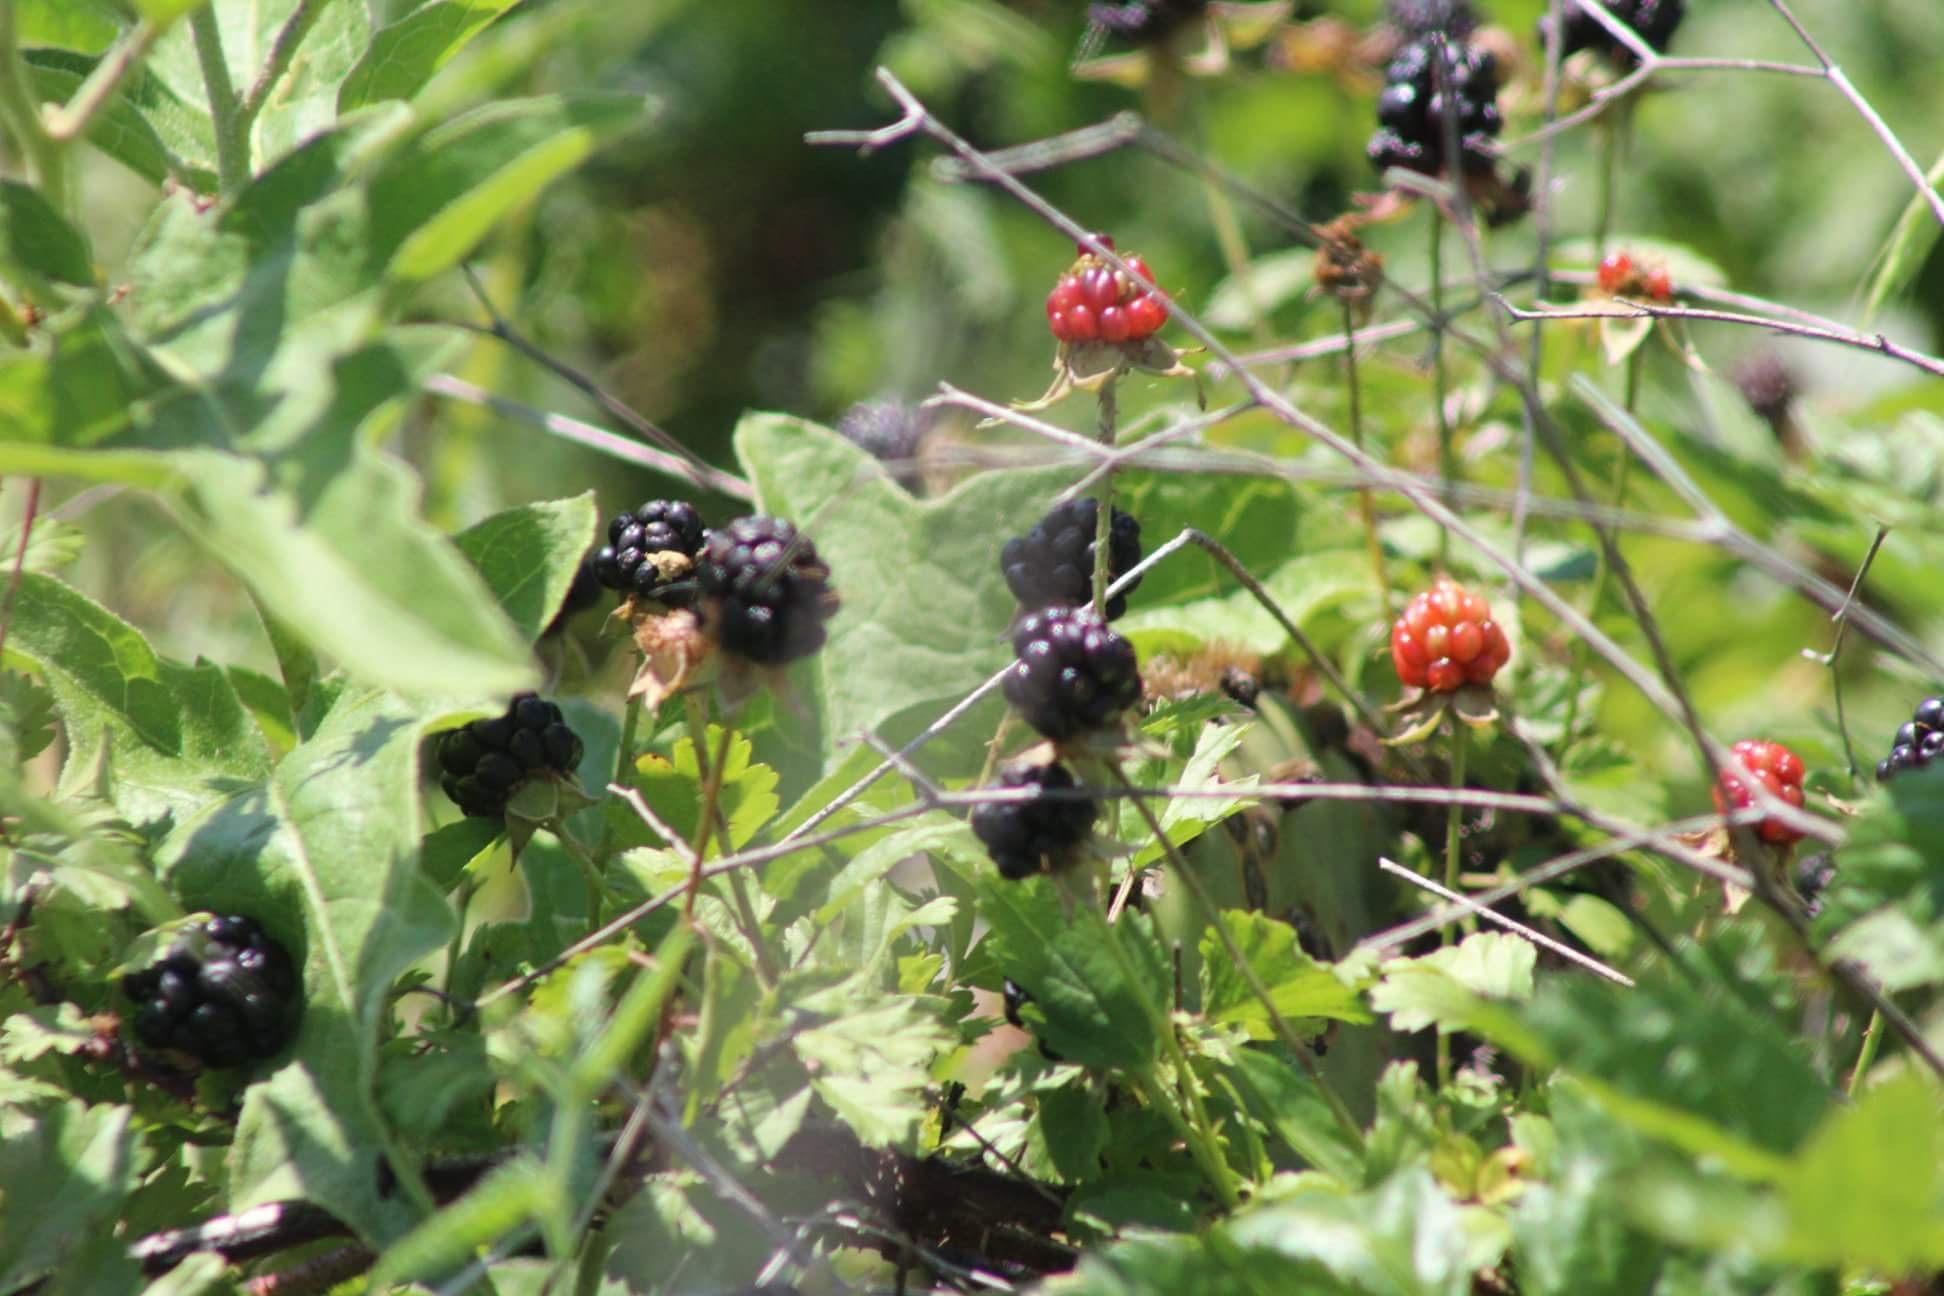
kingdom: Plantae
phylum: Tracheophyta
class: Magnoliopsida
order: Rosales
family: Rosaceae
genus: Rubus
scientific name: Rubus trivialis
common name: Southern dewberry
